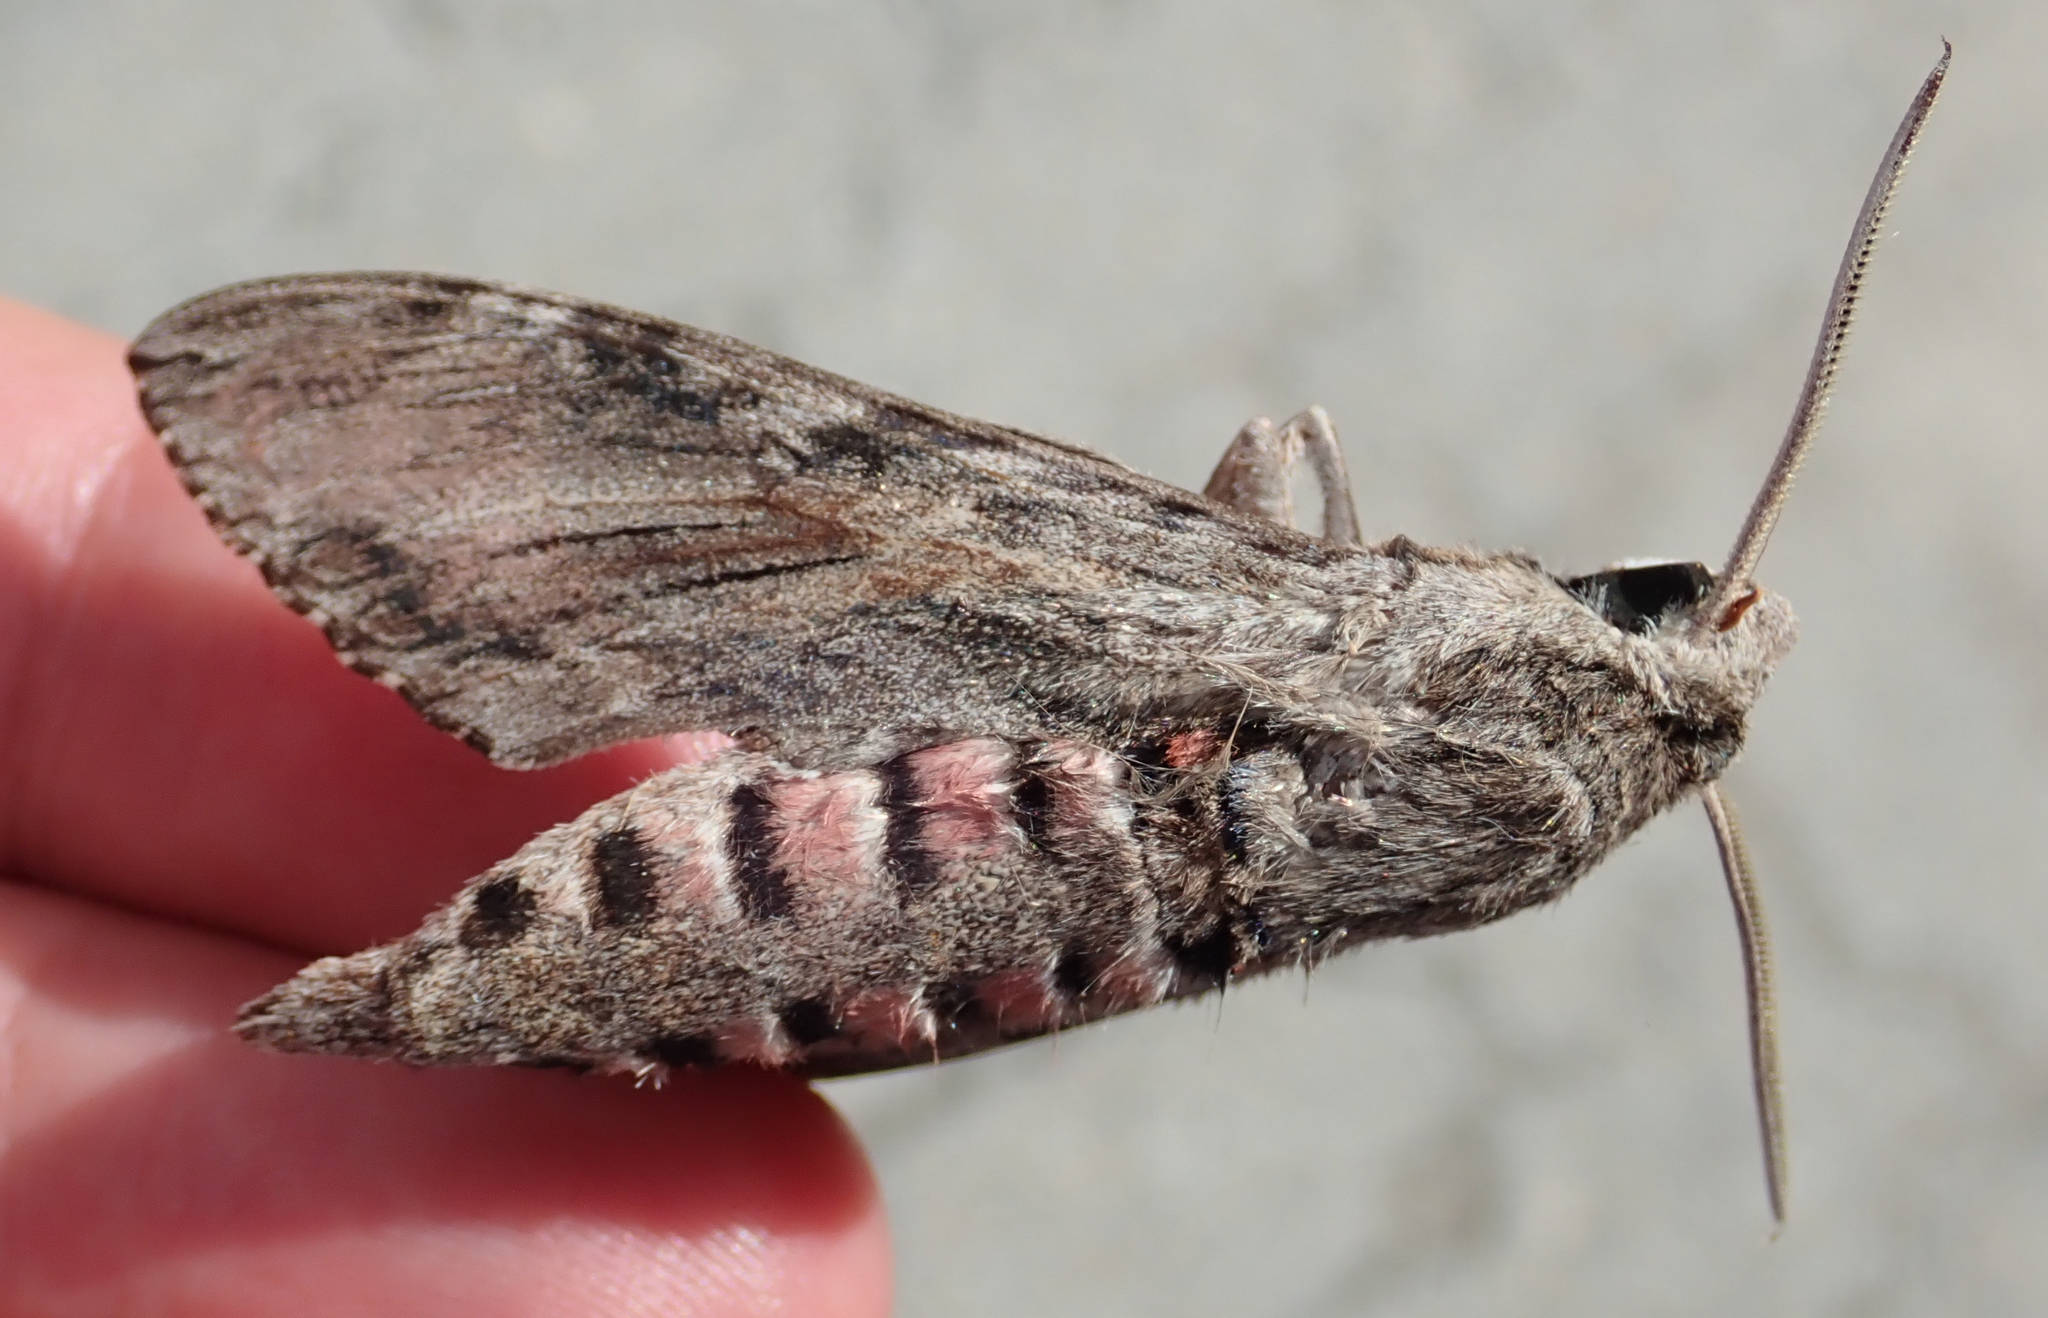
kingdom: Animalia
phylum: Arthropoda
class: Insecta
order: Lepidoptera
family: Sphingidae
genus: Agrius
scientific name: Agrius convolvuli
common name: Convolvulus hawkmoth
